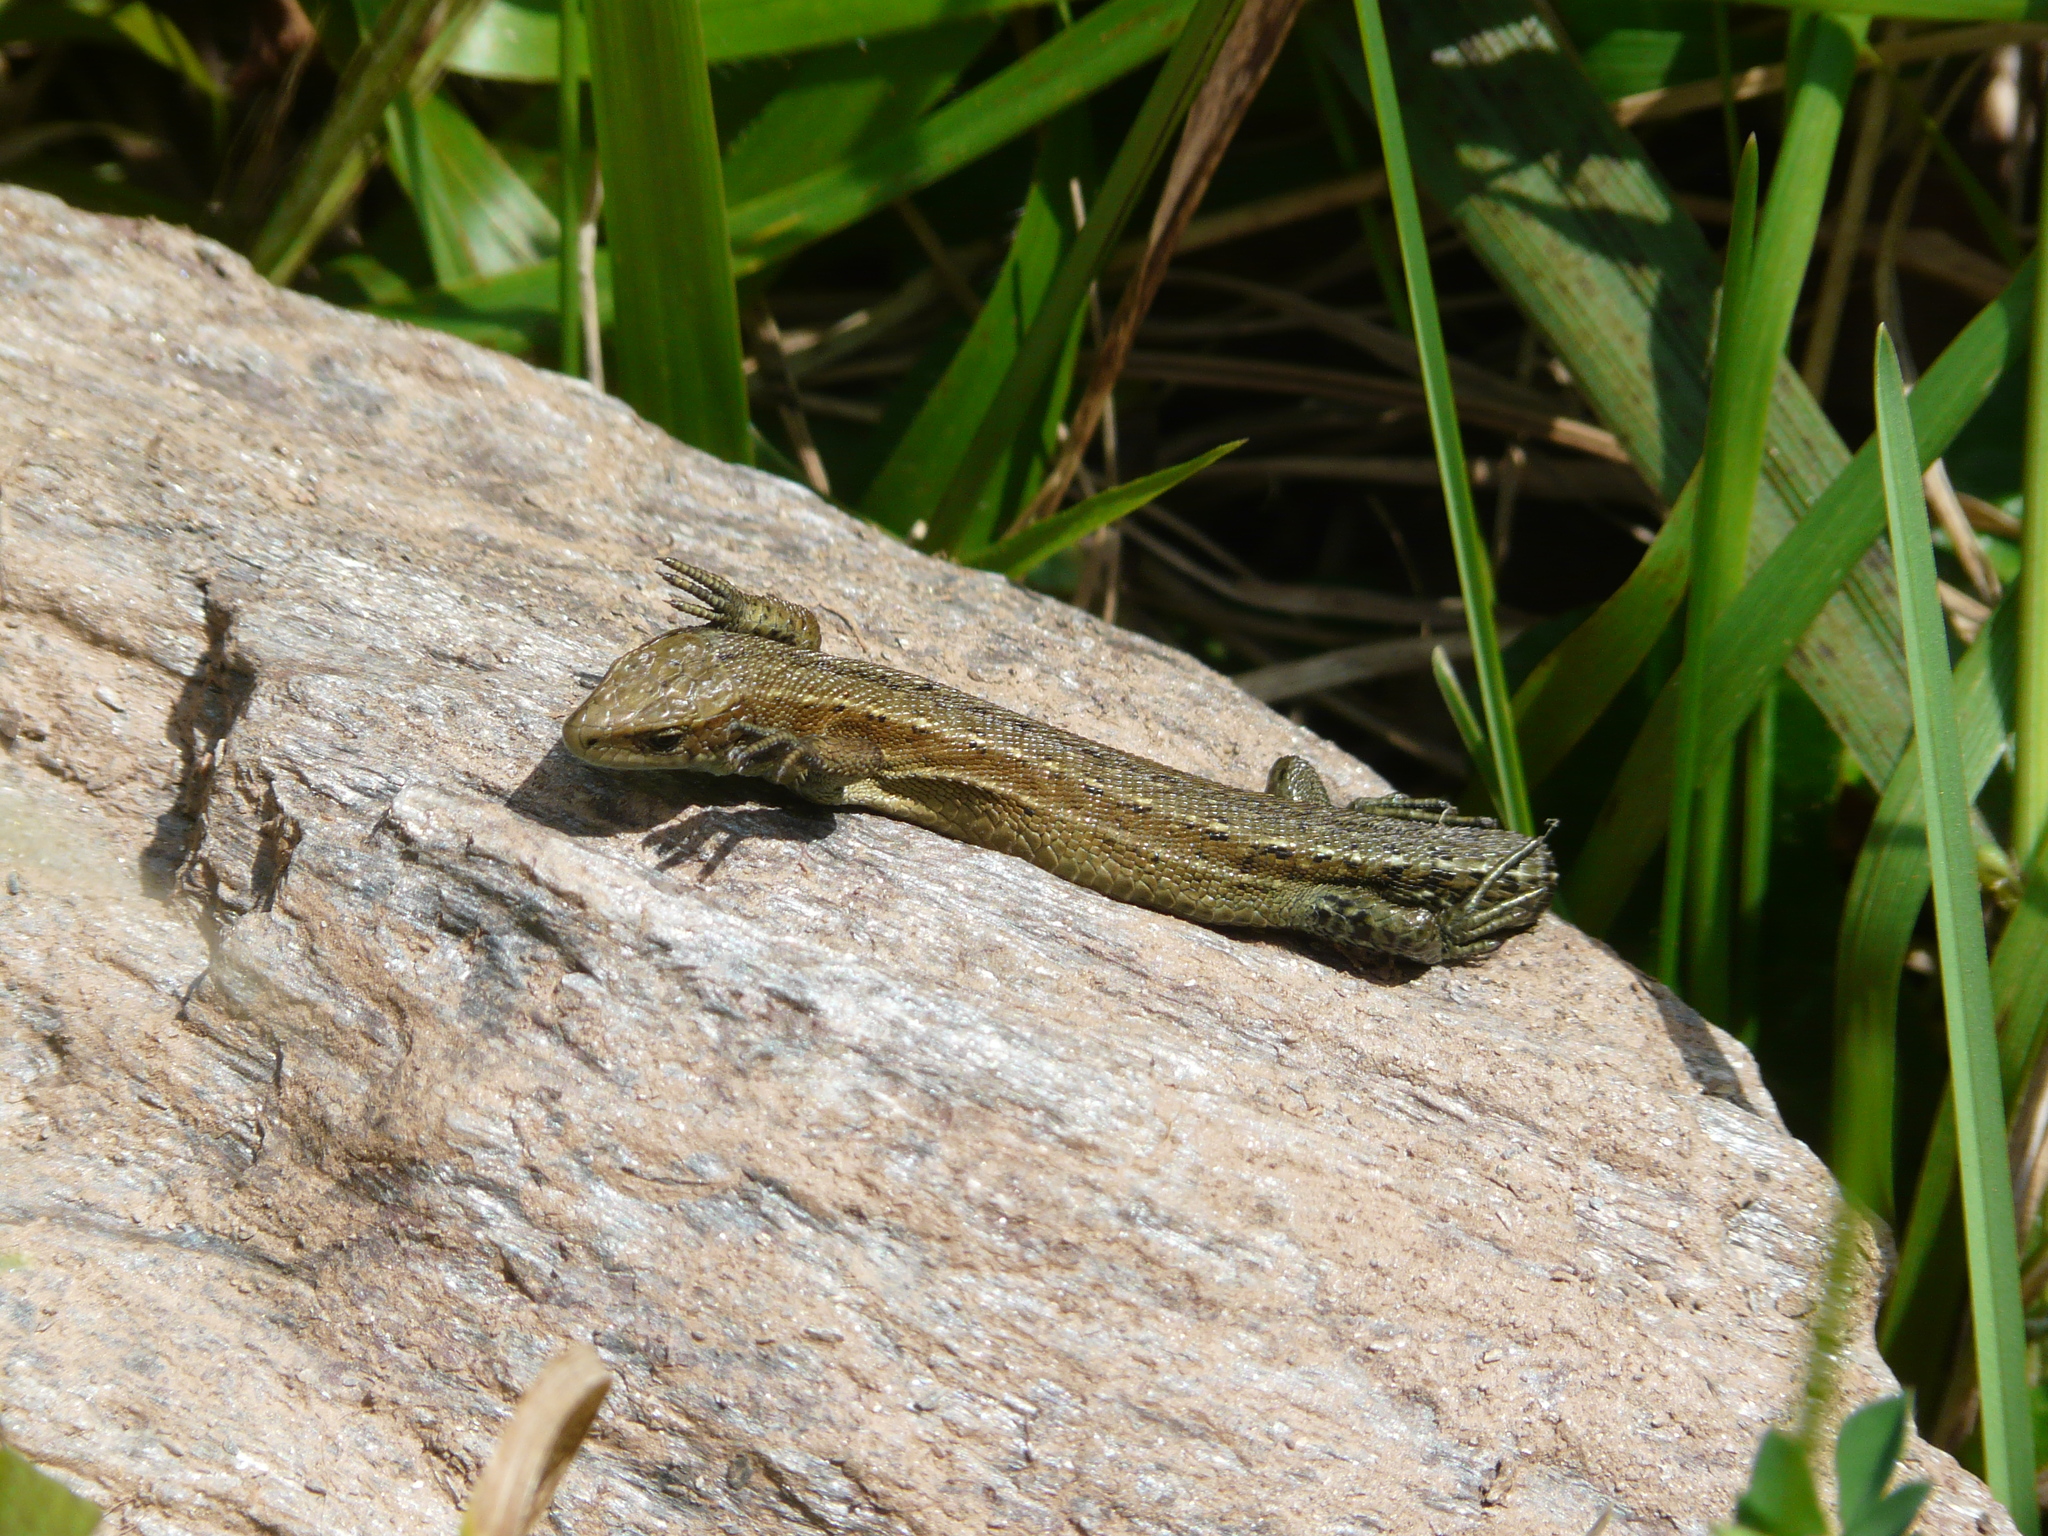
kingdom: Animalia
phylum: Chordata
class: Squamata
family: Lacertidae
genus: Zootoca
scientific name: Zootoca vivipara
